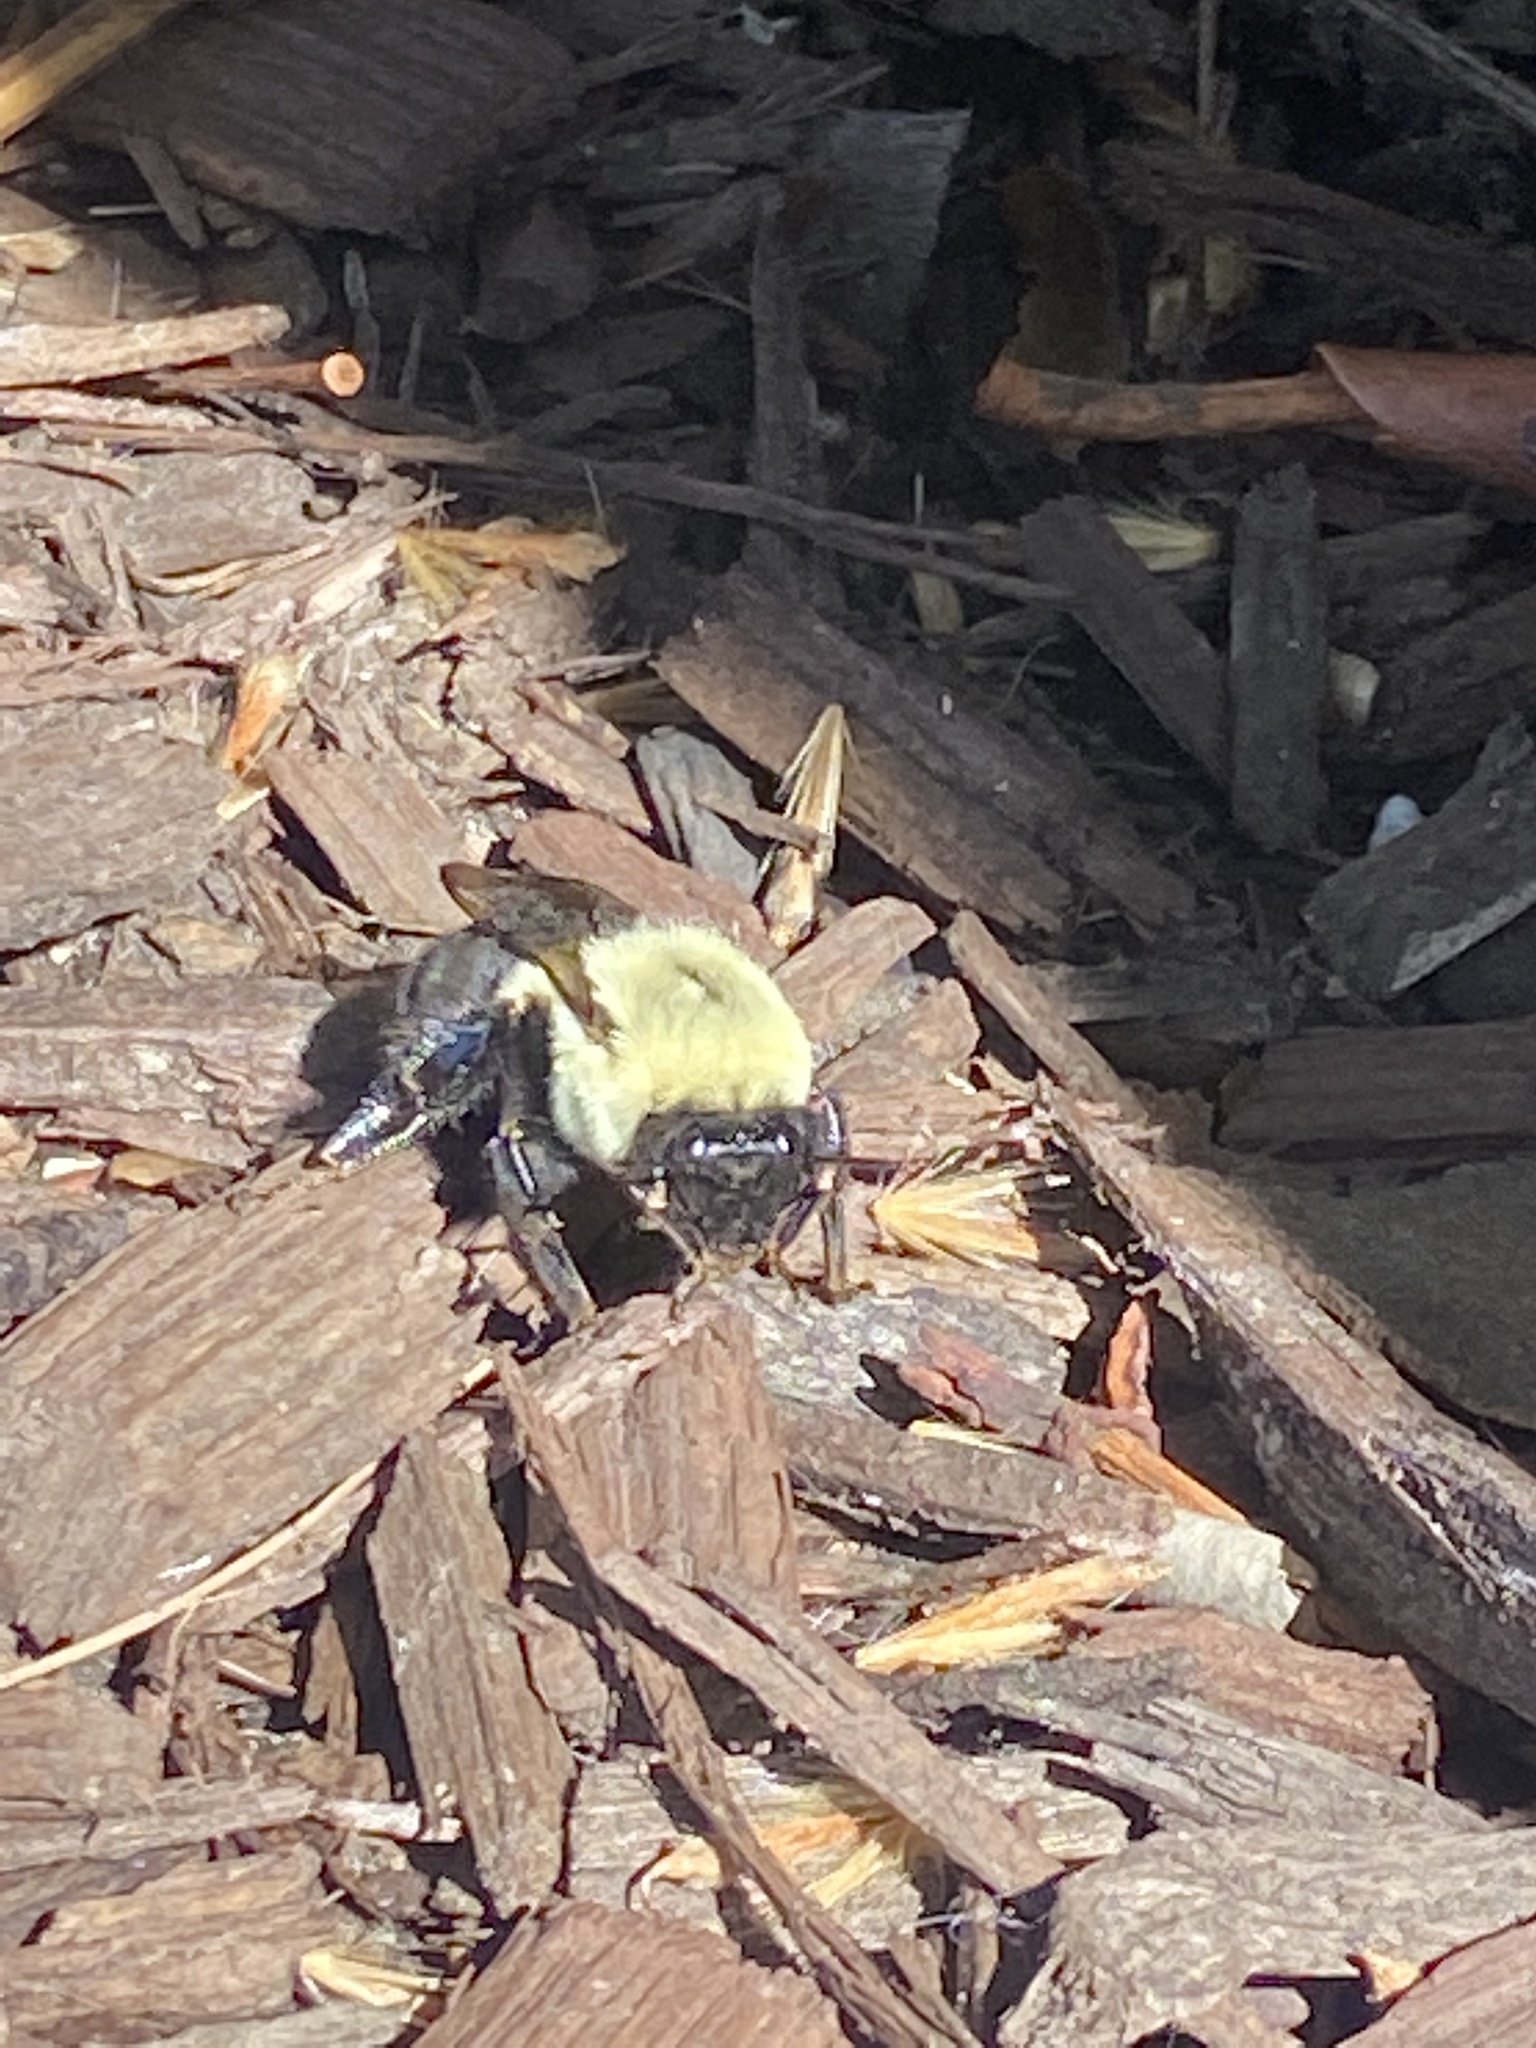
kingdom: Animalia
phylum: Arthropoda
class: Insecta
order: Hymenoptera
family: Apidae
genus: Bombus
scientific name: Bombus impatiens
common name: Common eastern bumble bee
